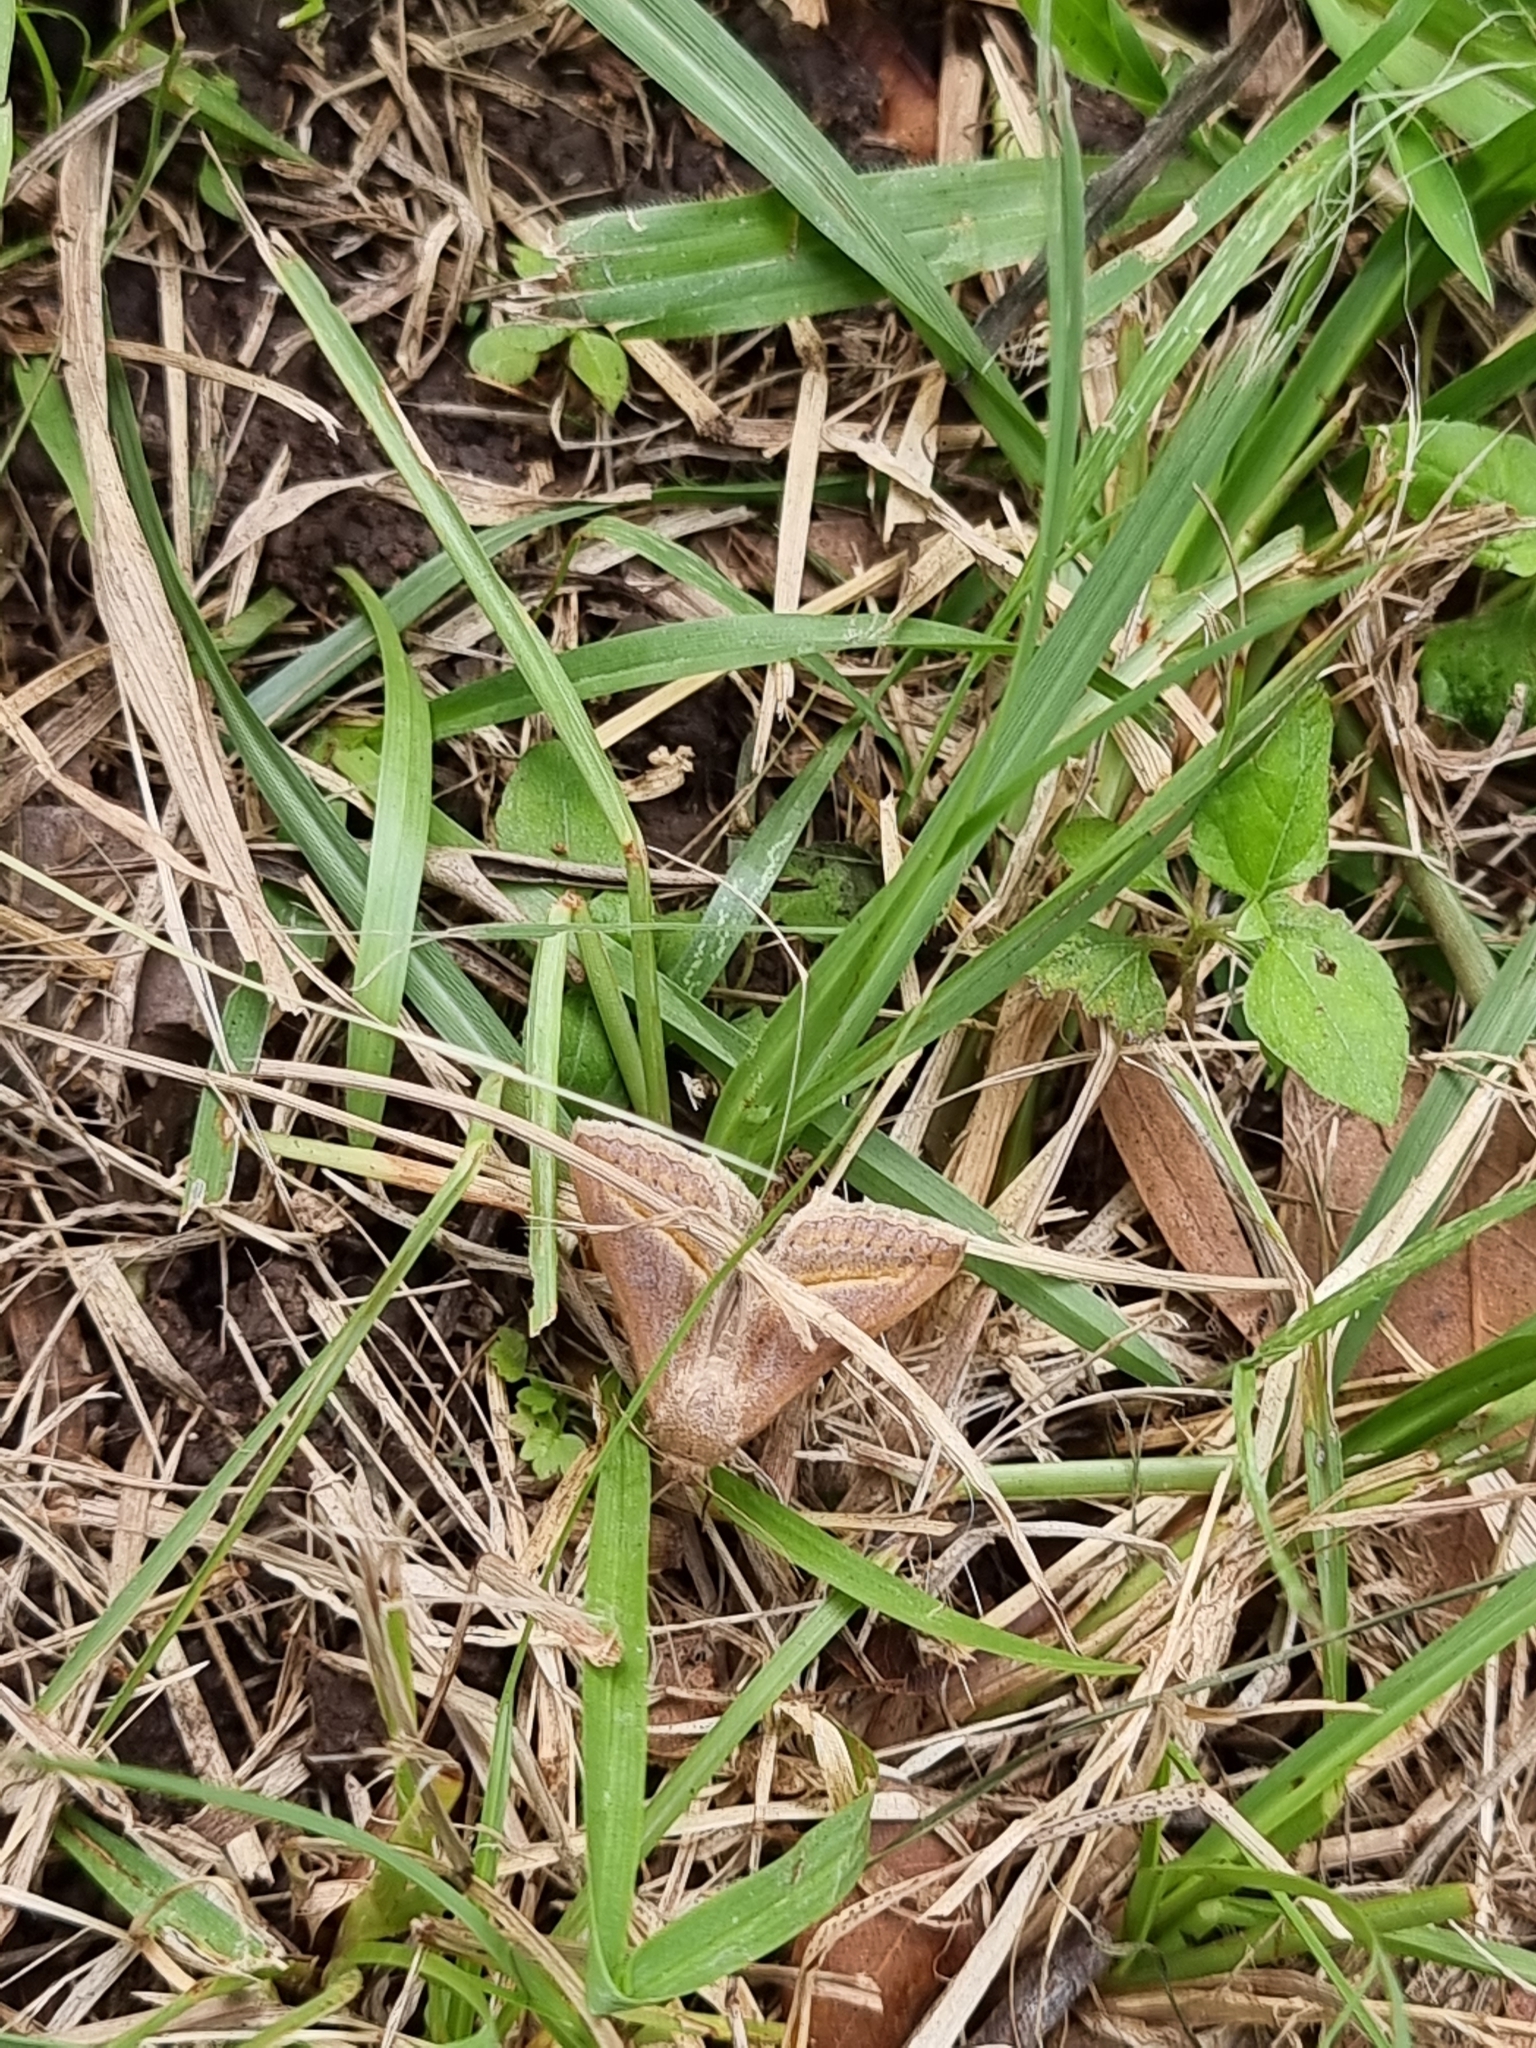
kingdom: Animalia
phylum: Arthropoda
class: Insecta
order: Lepidoptera
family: Erebidae
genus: Mocis
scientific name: Mocis frugalis
